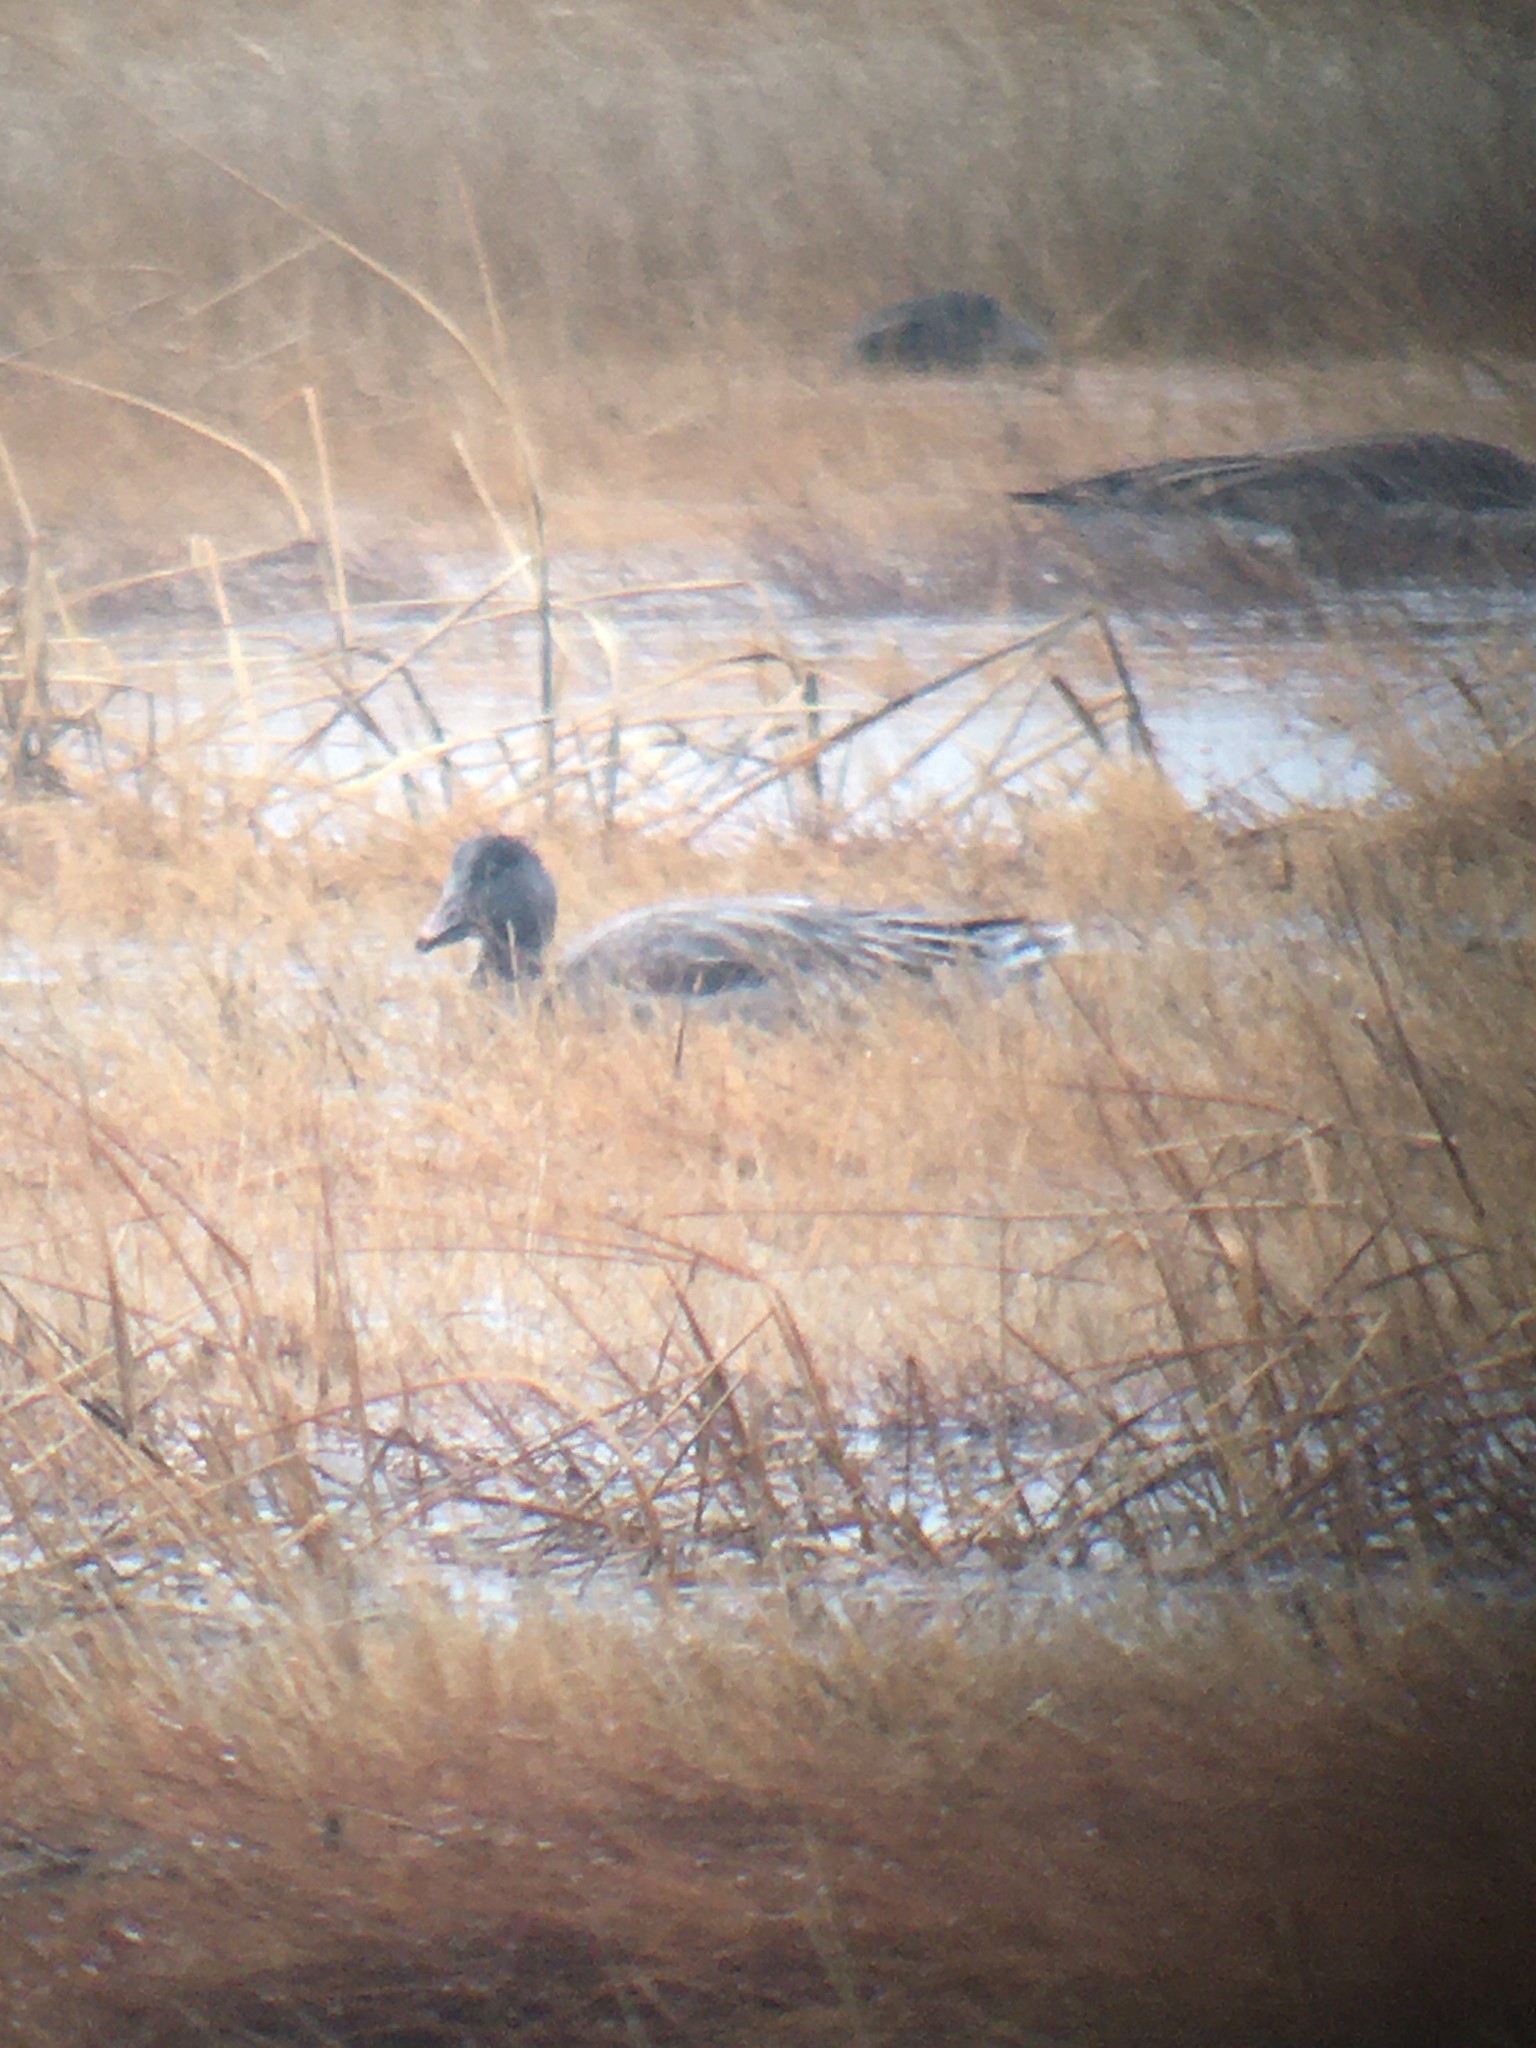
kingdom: Animalia
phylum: Chordata
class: Aves
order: Anseriformes
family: Anatidae
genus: Anser
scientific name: Anser caerulescens
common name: Snow goose
